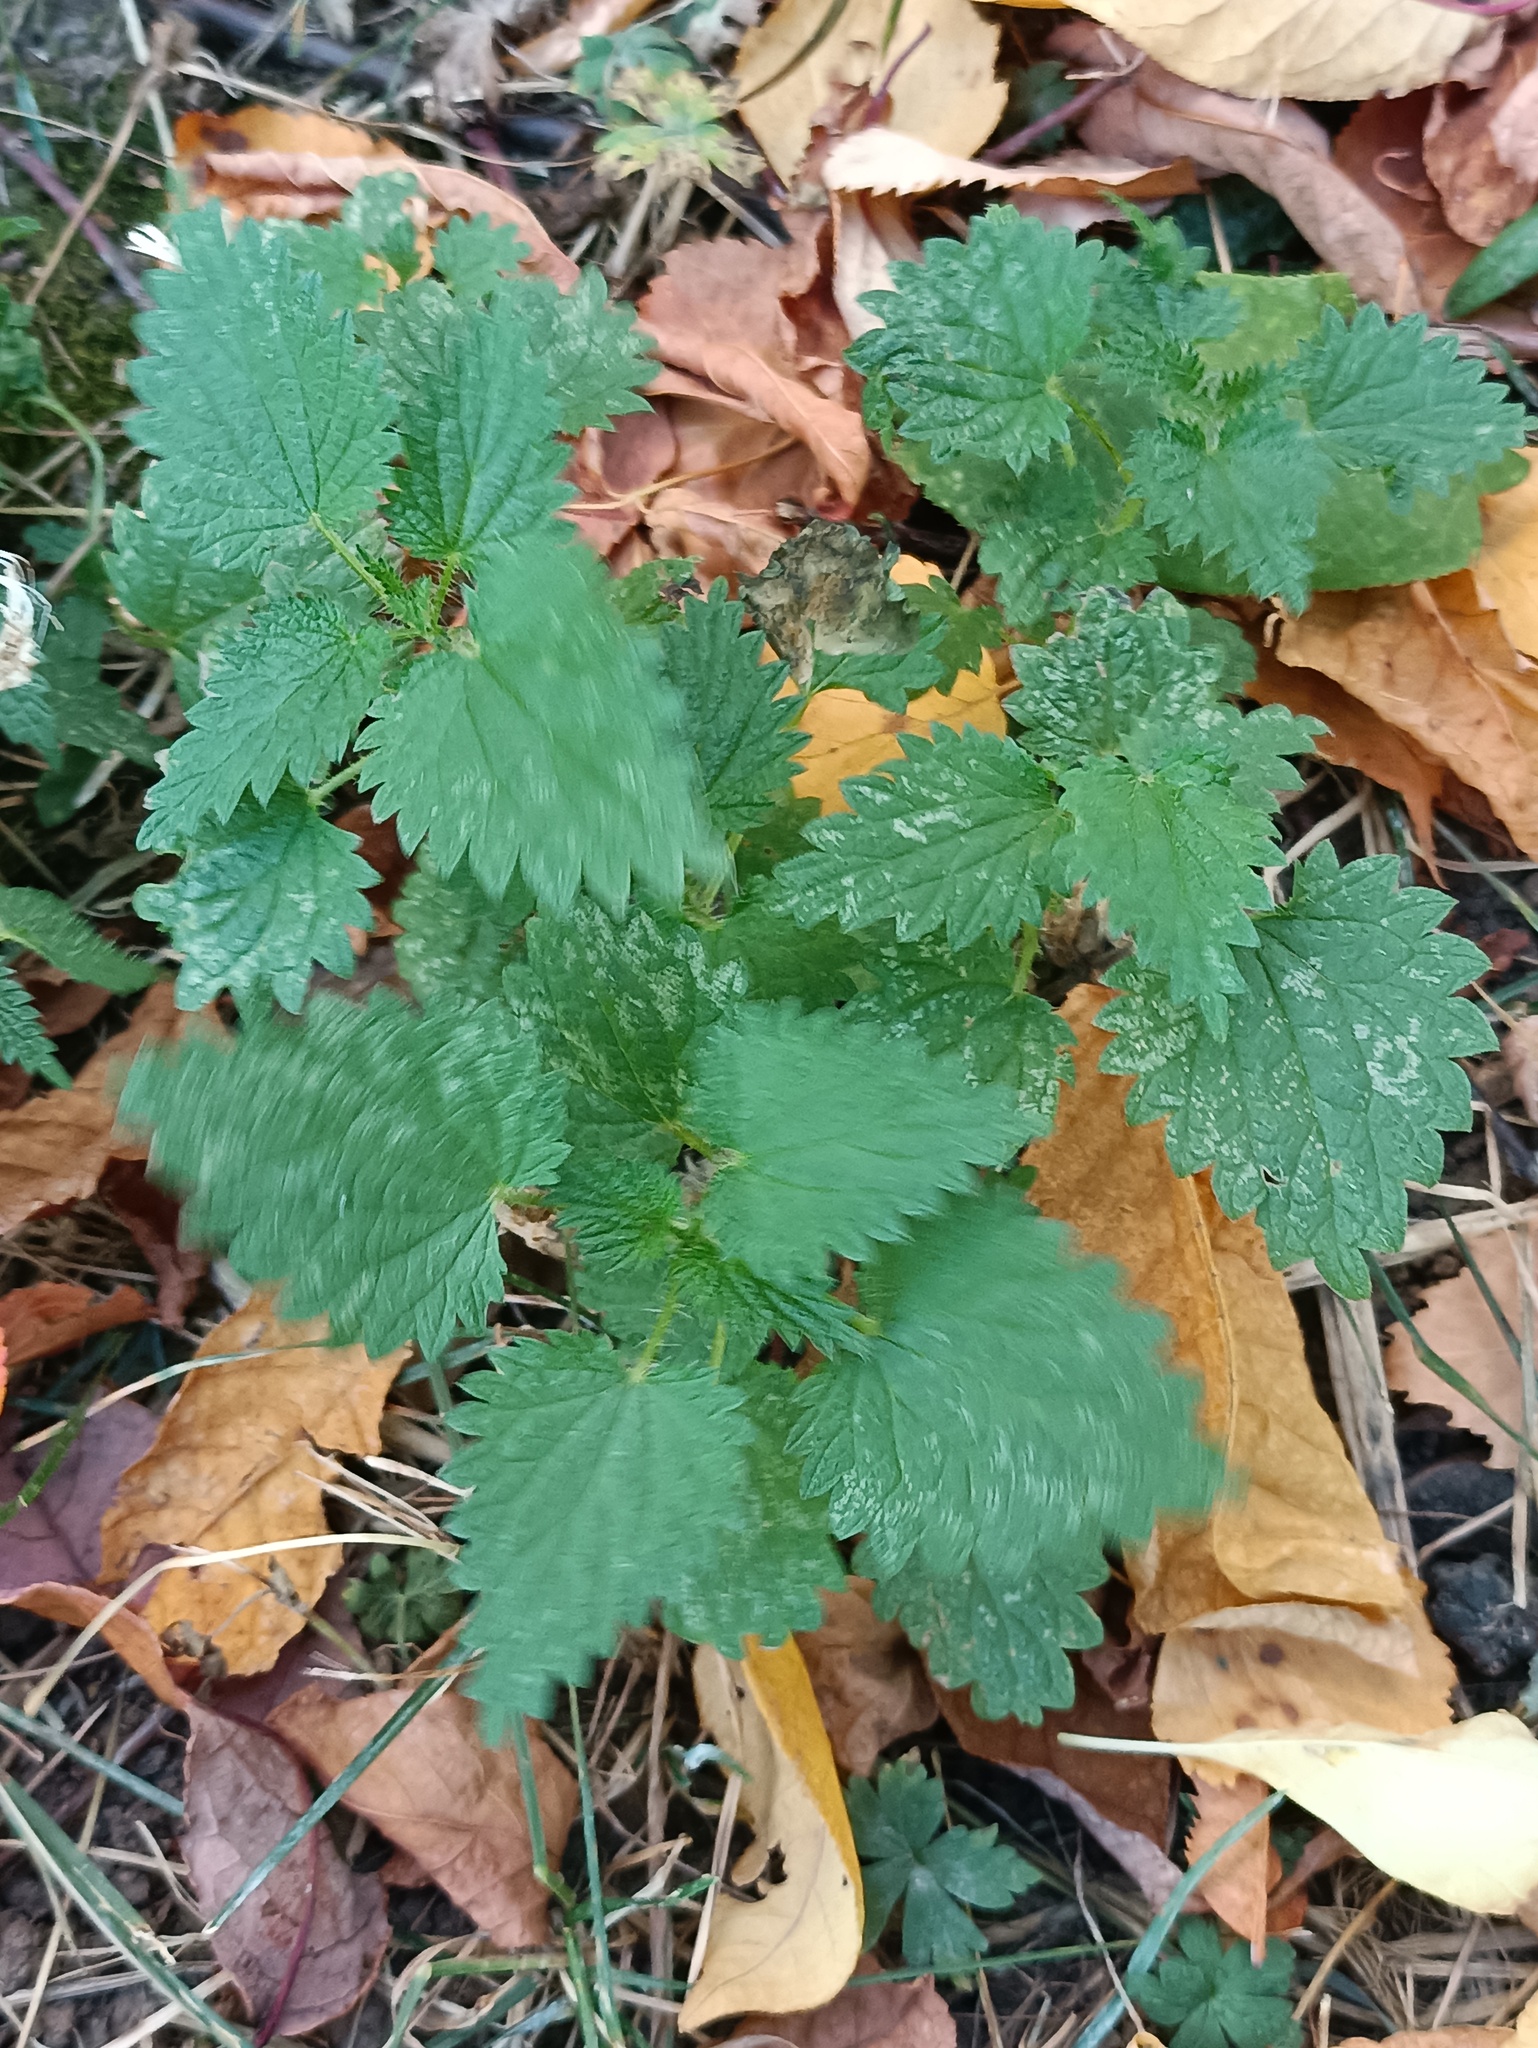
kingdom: Plantae
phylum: Tracheophyta
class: Magnoliopsida
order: Rosales
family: Urticaceae
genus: Urtica
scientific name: Urtica dioica
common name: Common nettle
